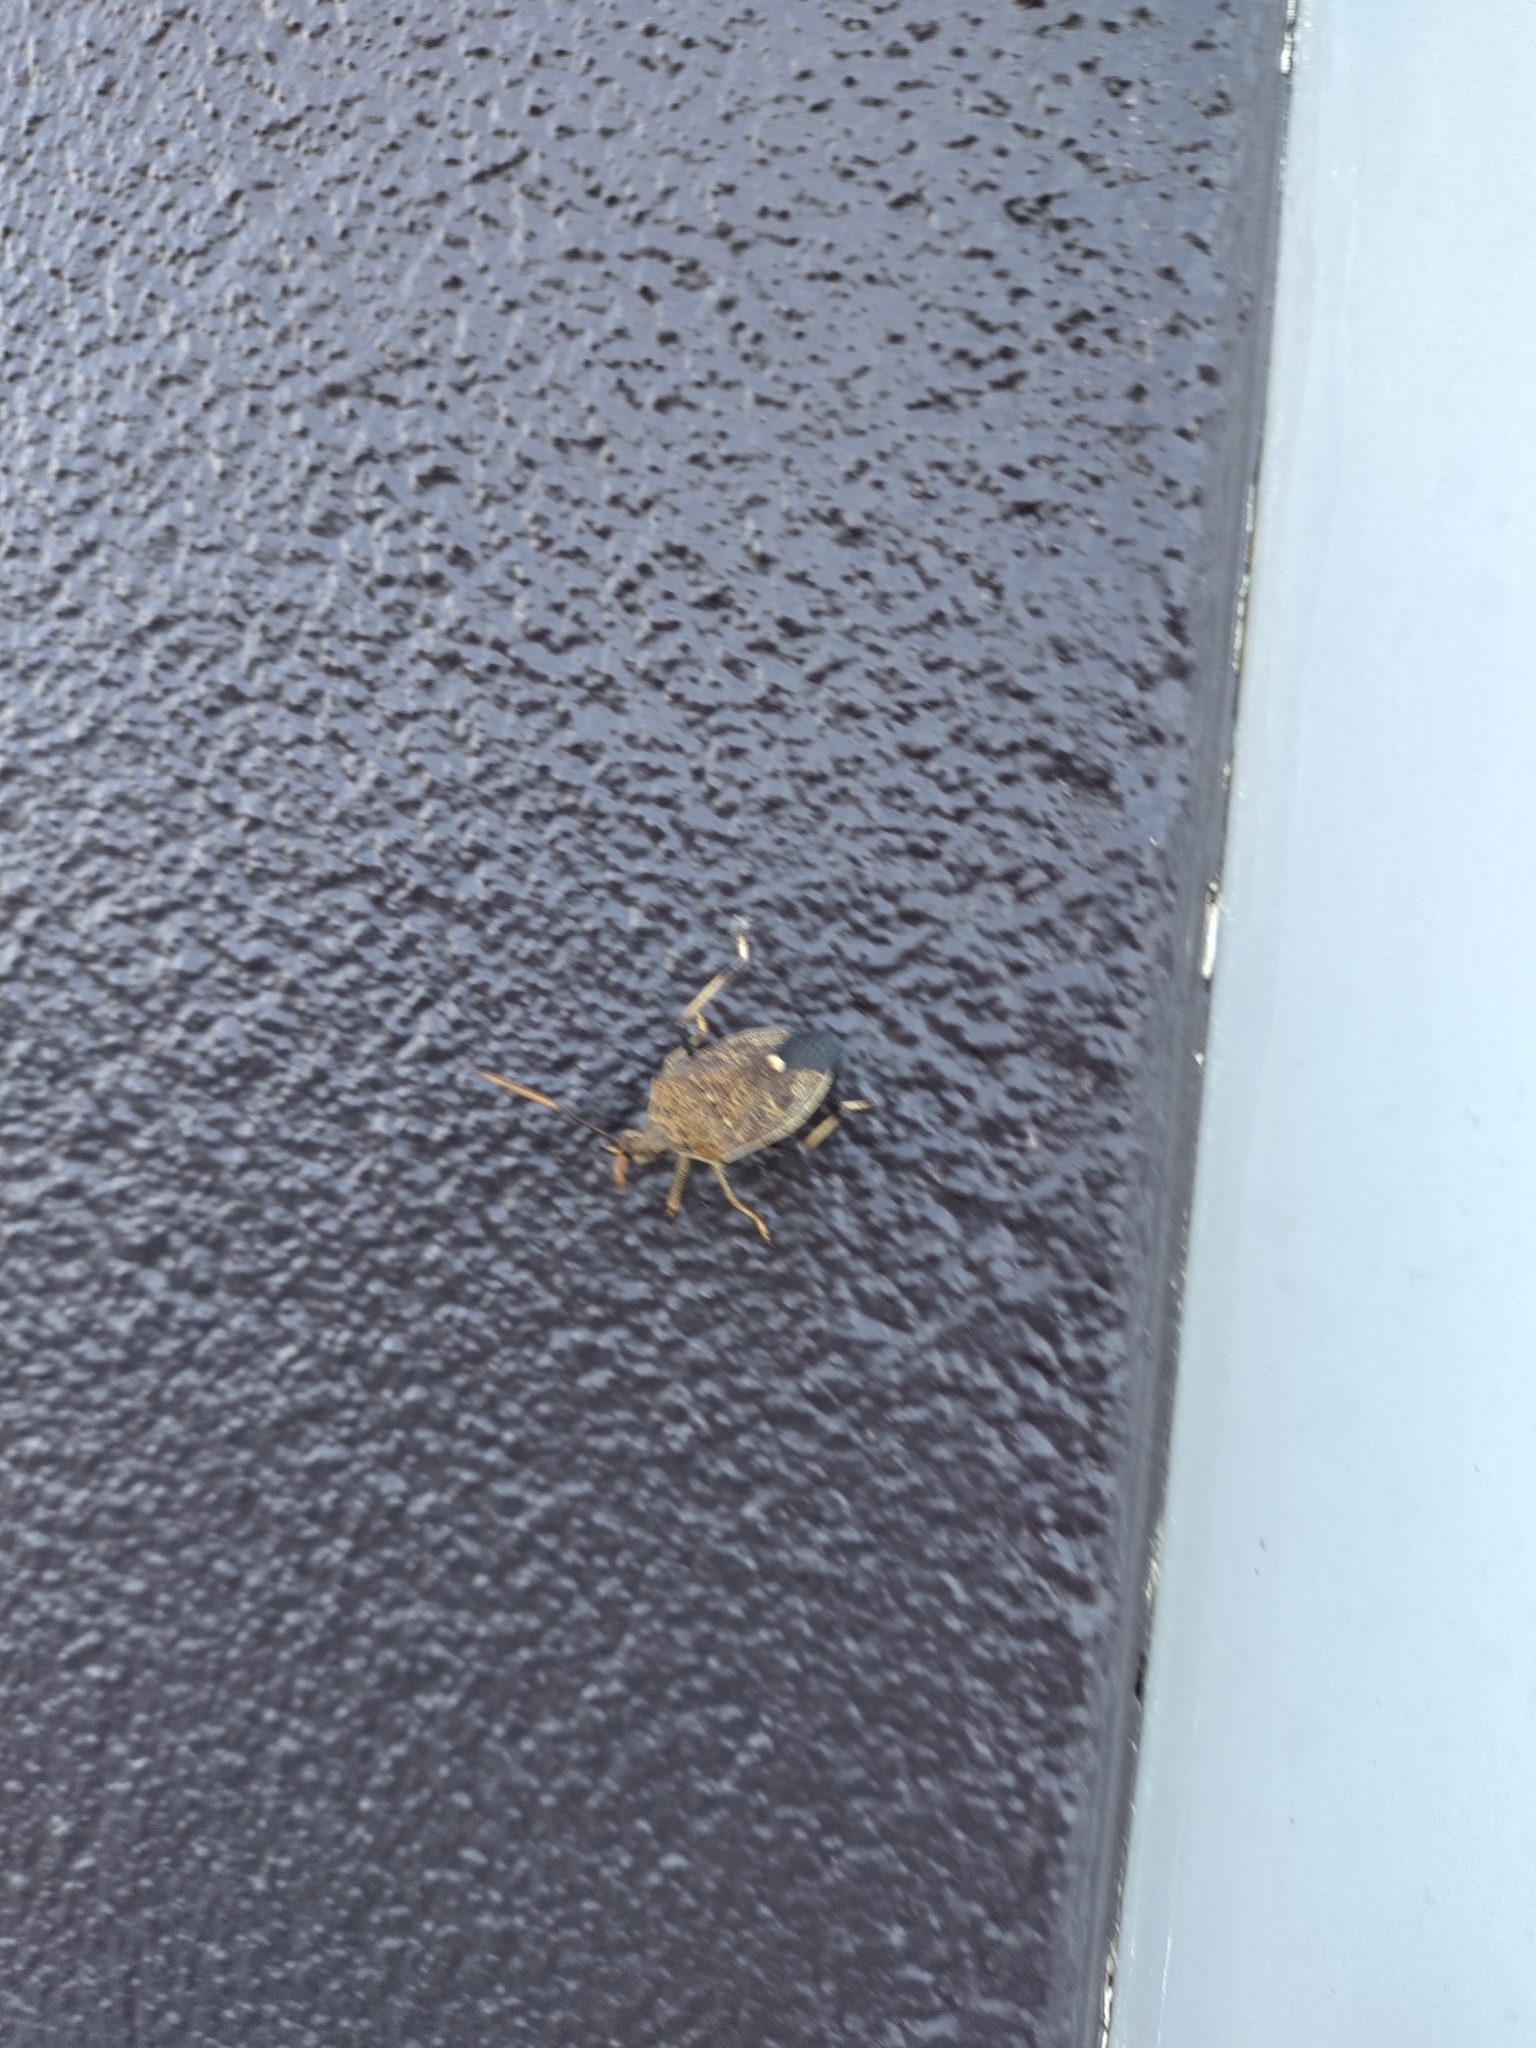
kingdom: Animalia
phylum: Arthropoda
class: Insecta
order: Hemiptera
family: Pentatomidae
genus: Poecilometis
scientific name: Poecilometis
